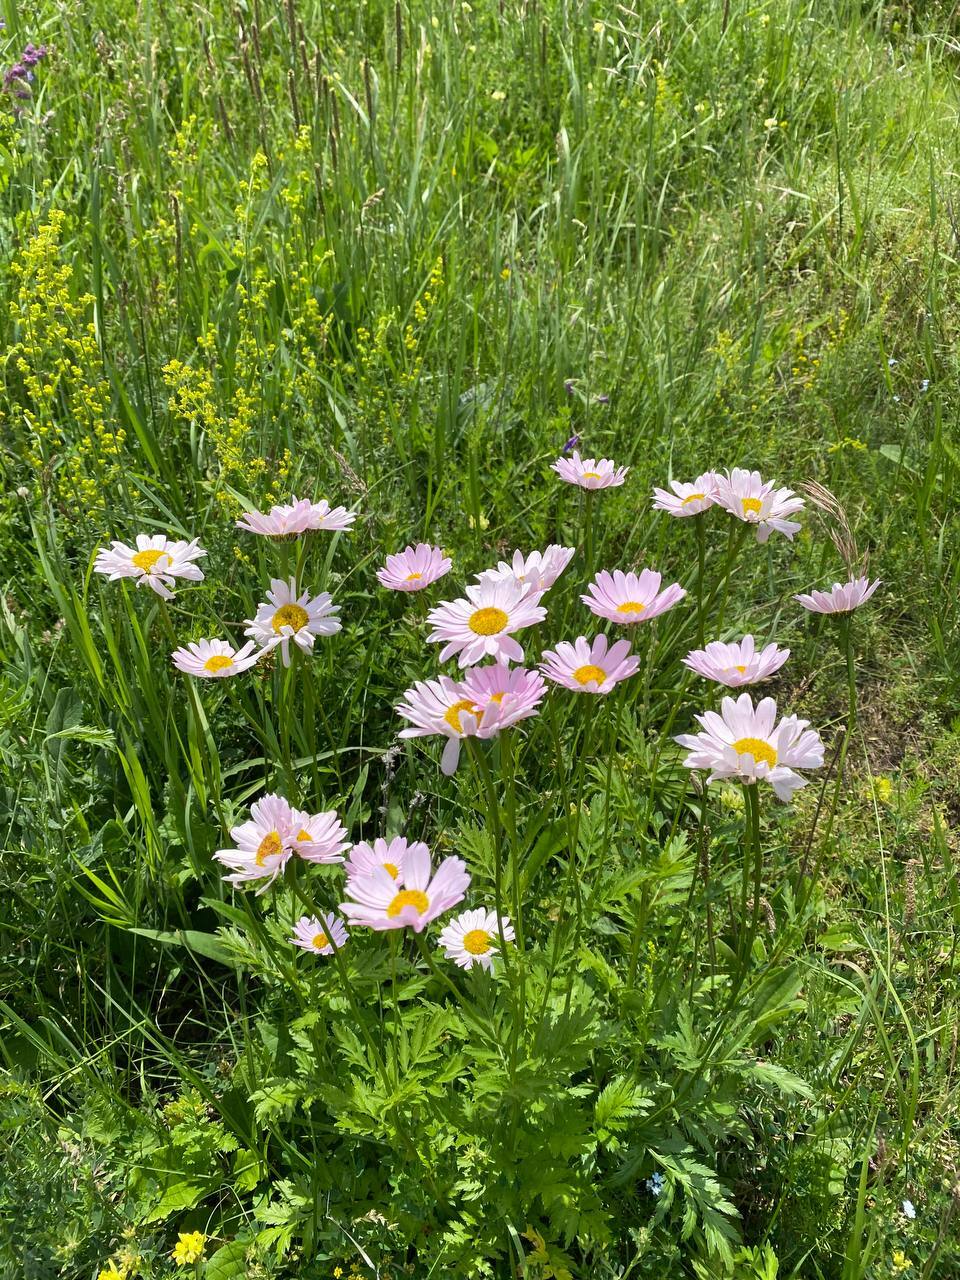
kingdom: Plantae
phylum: Tracheophyta
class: Magnoliopsida
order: Asterales
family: Asteraceae
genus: Tanacetum
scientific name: Tanacetum coccineum
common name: Pyrethum daisy
